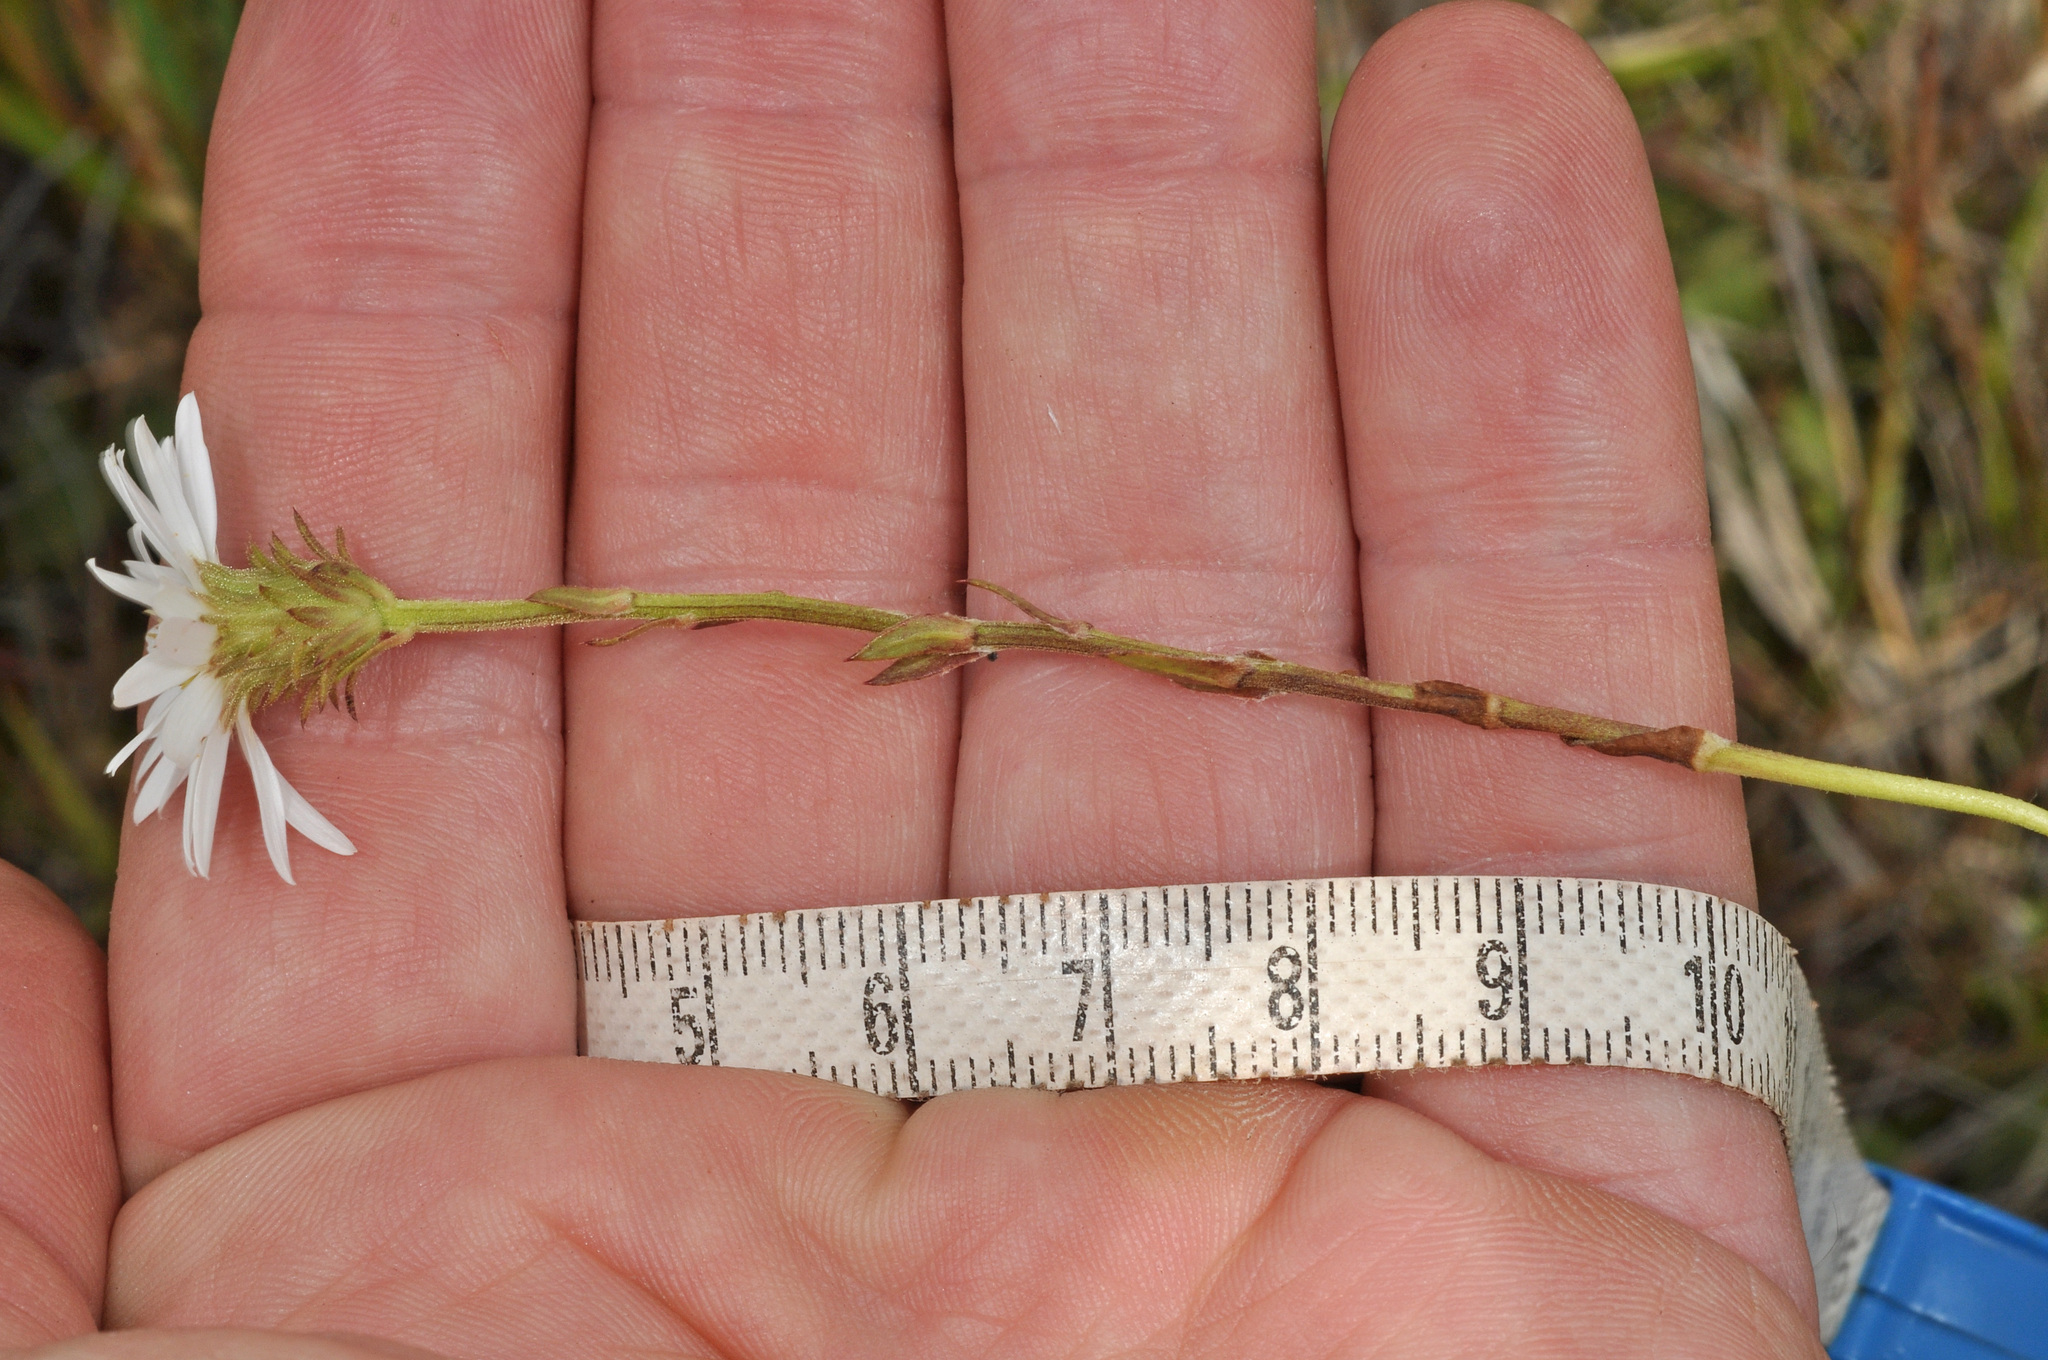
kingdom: Plantae
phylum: Tracheophyta
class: Magnoliopsida
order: Asterales
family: Asteraceae
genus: Celmisia
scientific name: Celmisia glandulosa
